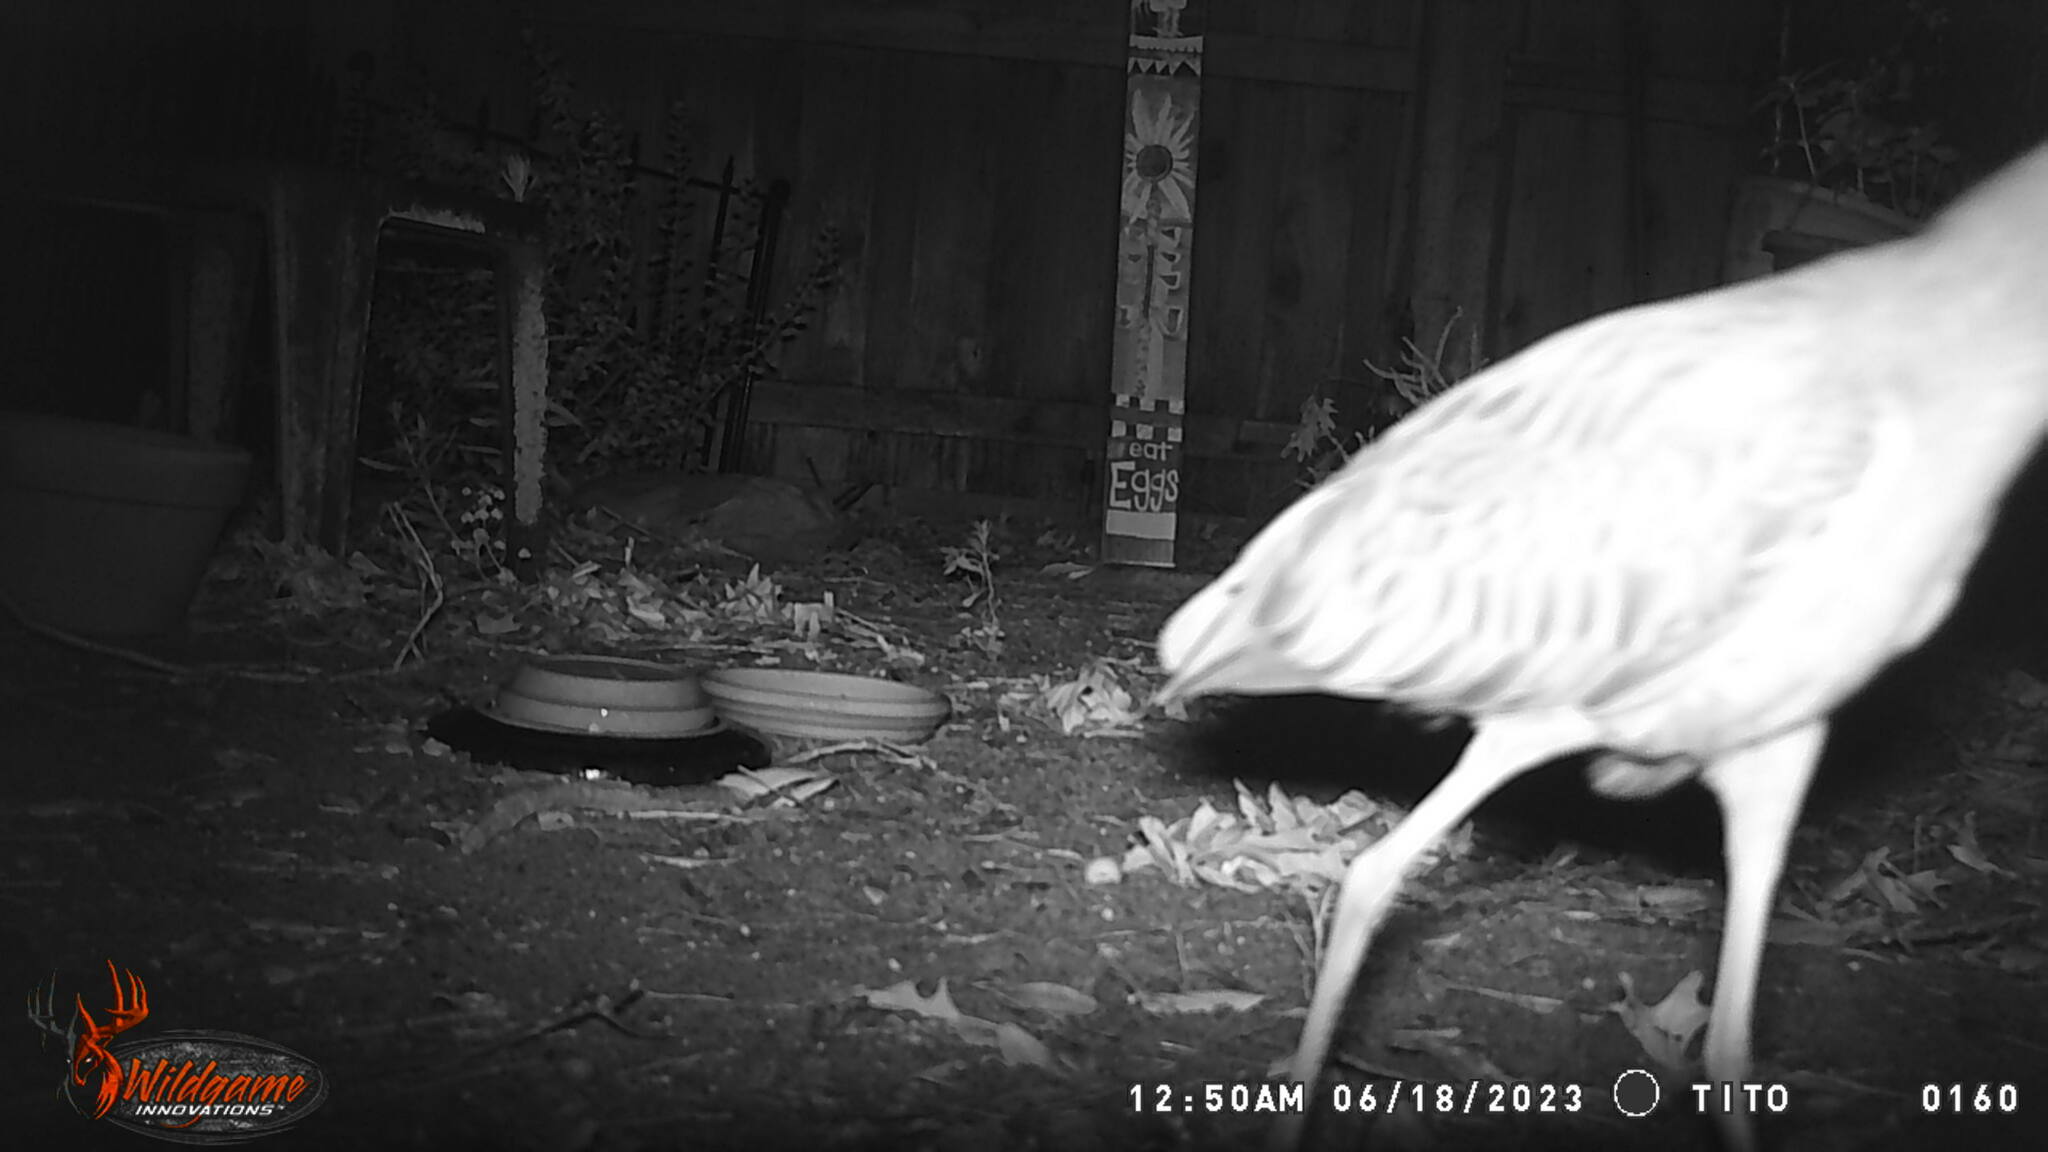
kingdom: Animalia
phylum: Chordata
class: Aves
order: Pelecaniformes
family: Ardeidae
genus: Nyctanassa
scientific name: Nyctanassa violacea
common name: Yellow-crowned night heron
